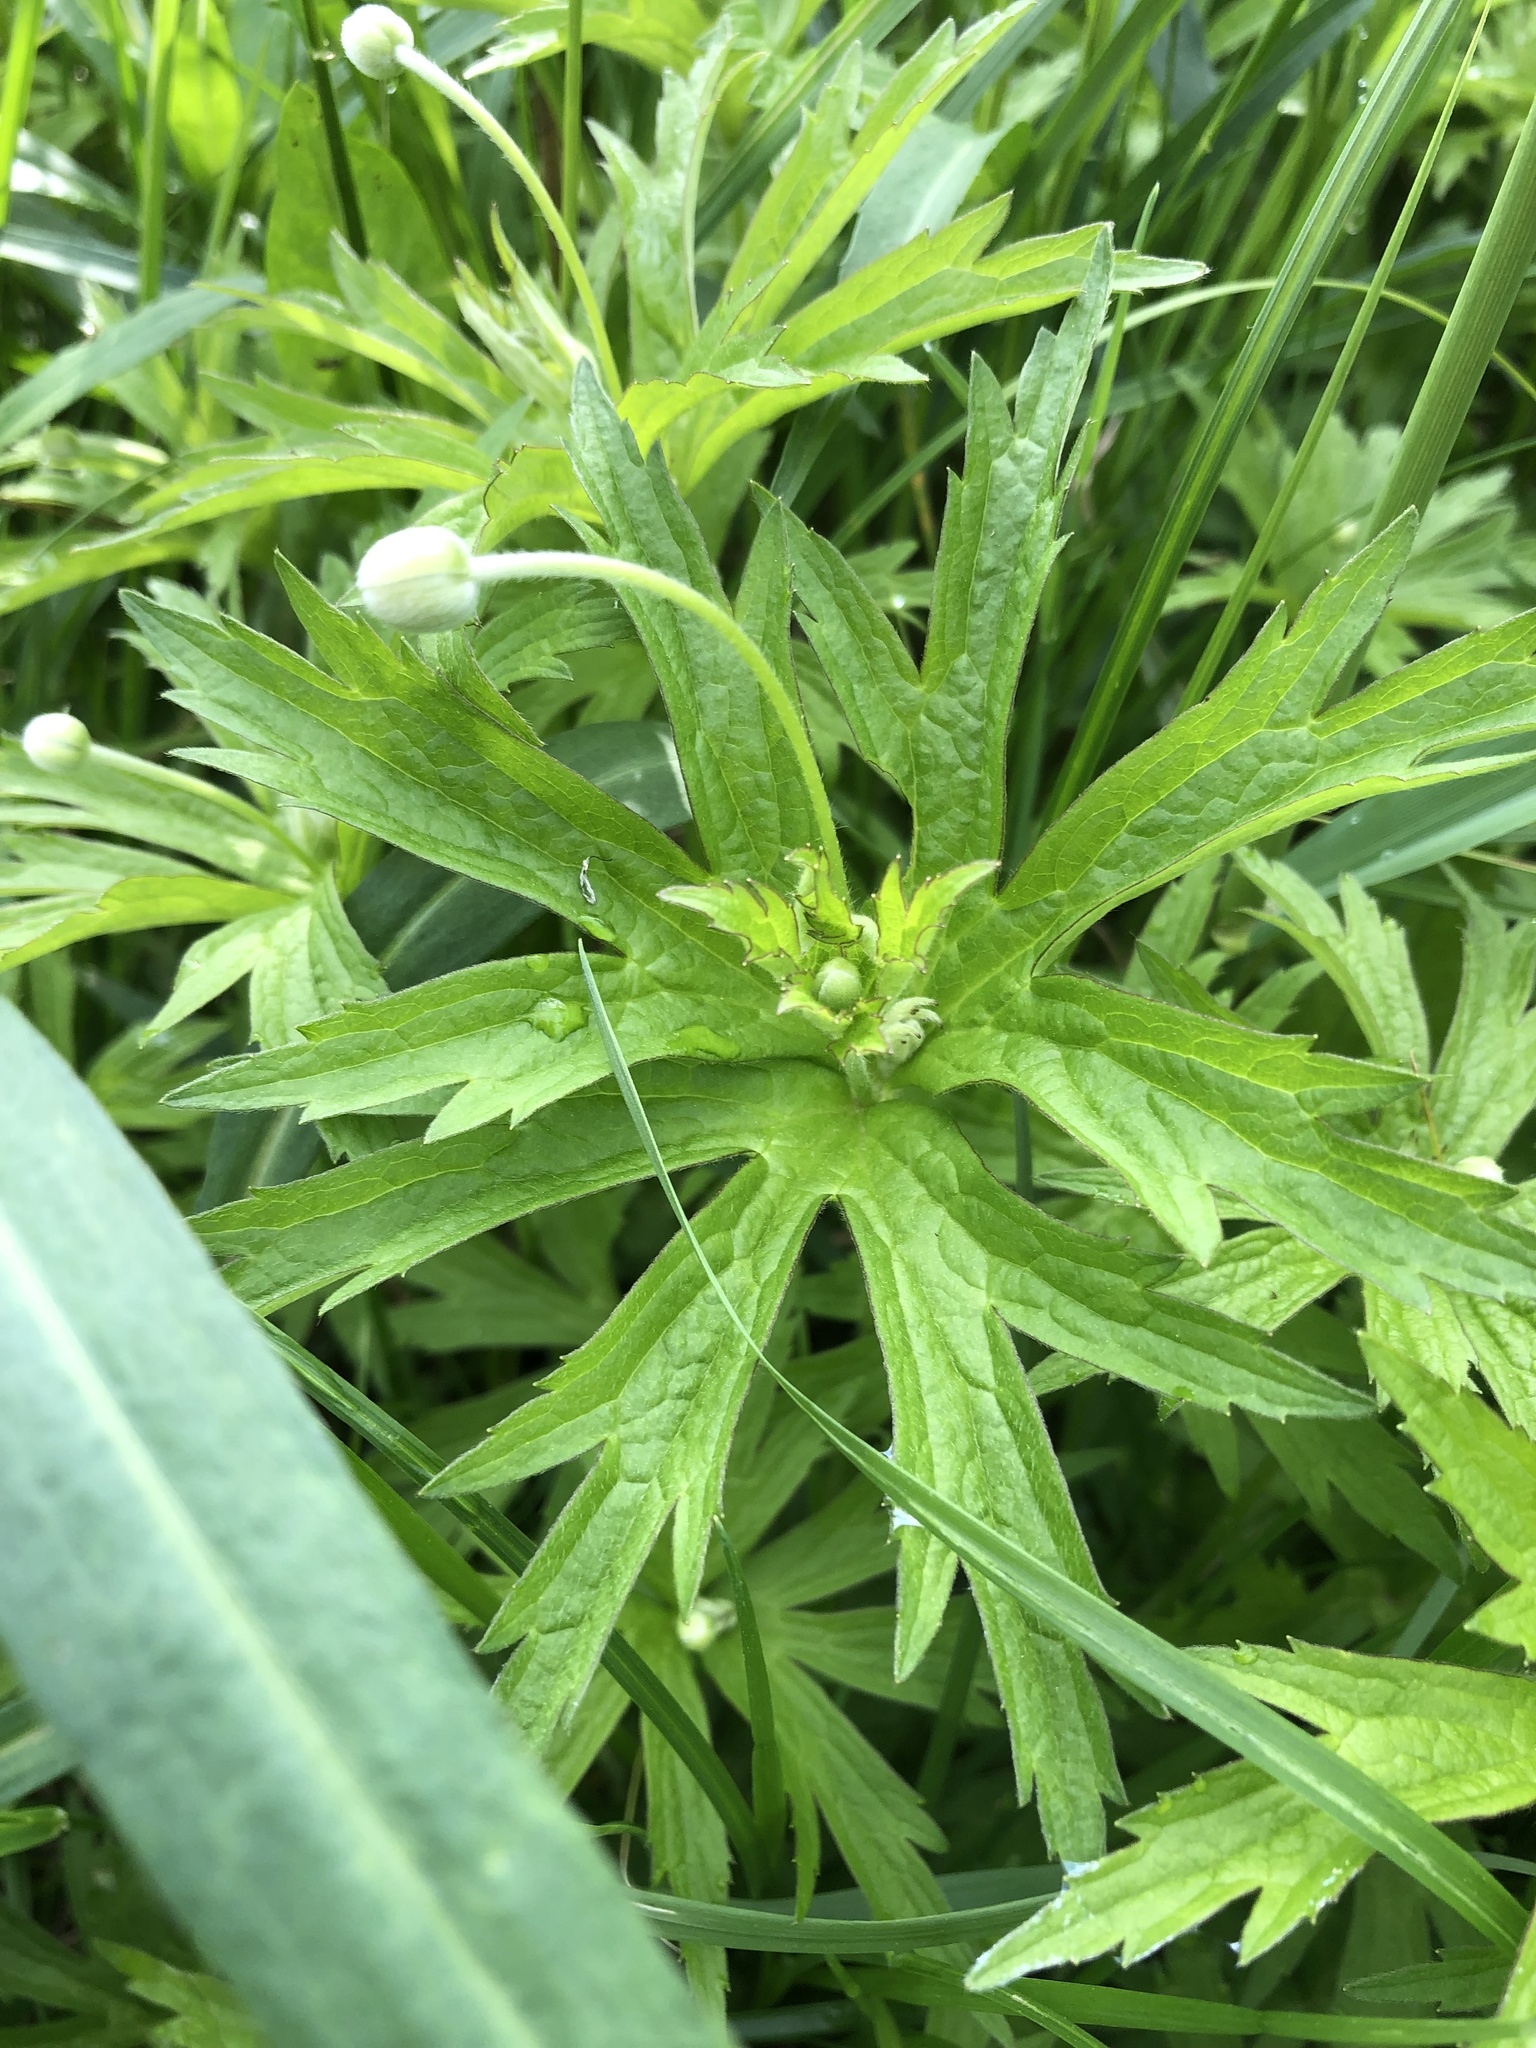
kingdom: Plantae
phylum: Tracheophyta
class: Magnoliopsida
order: Ranunculales
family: Ranunculaceae
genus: Anemonastrum
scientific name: Anemonastrum canadense
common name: Canada anemone
